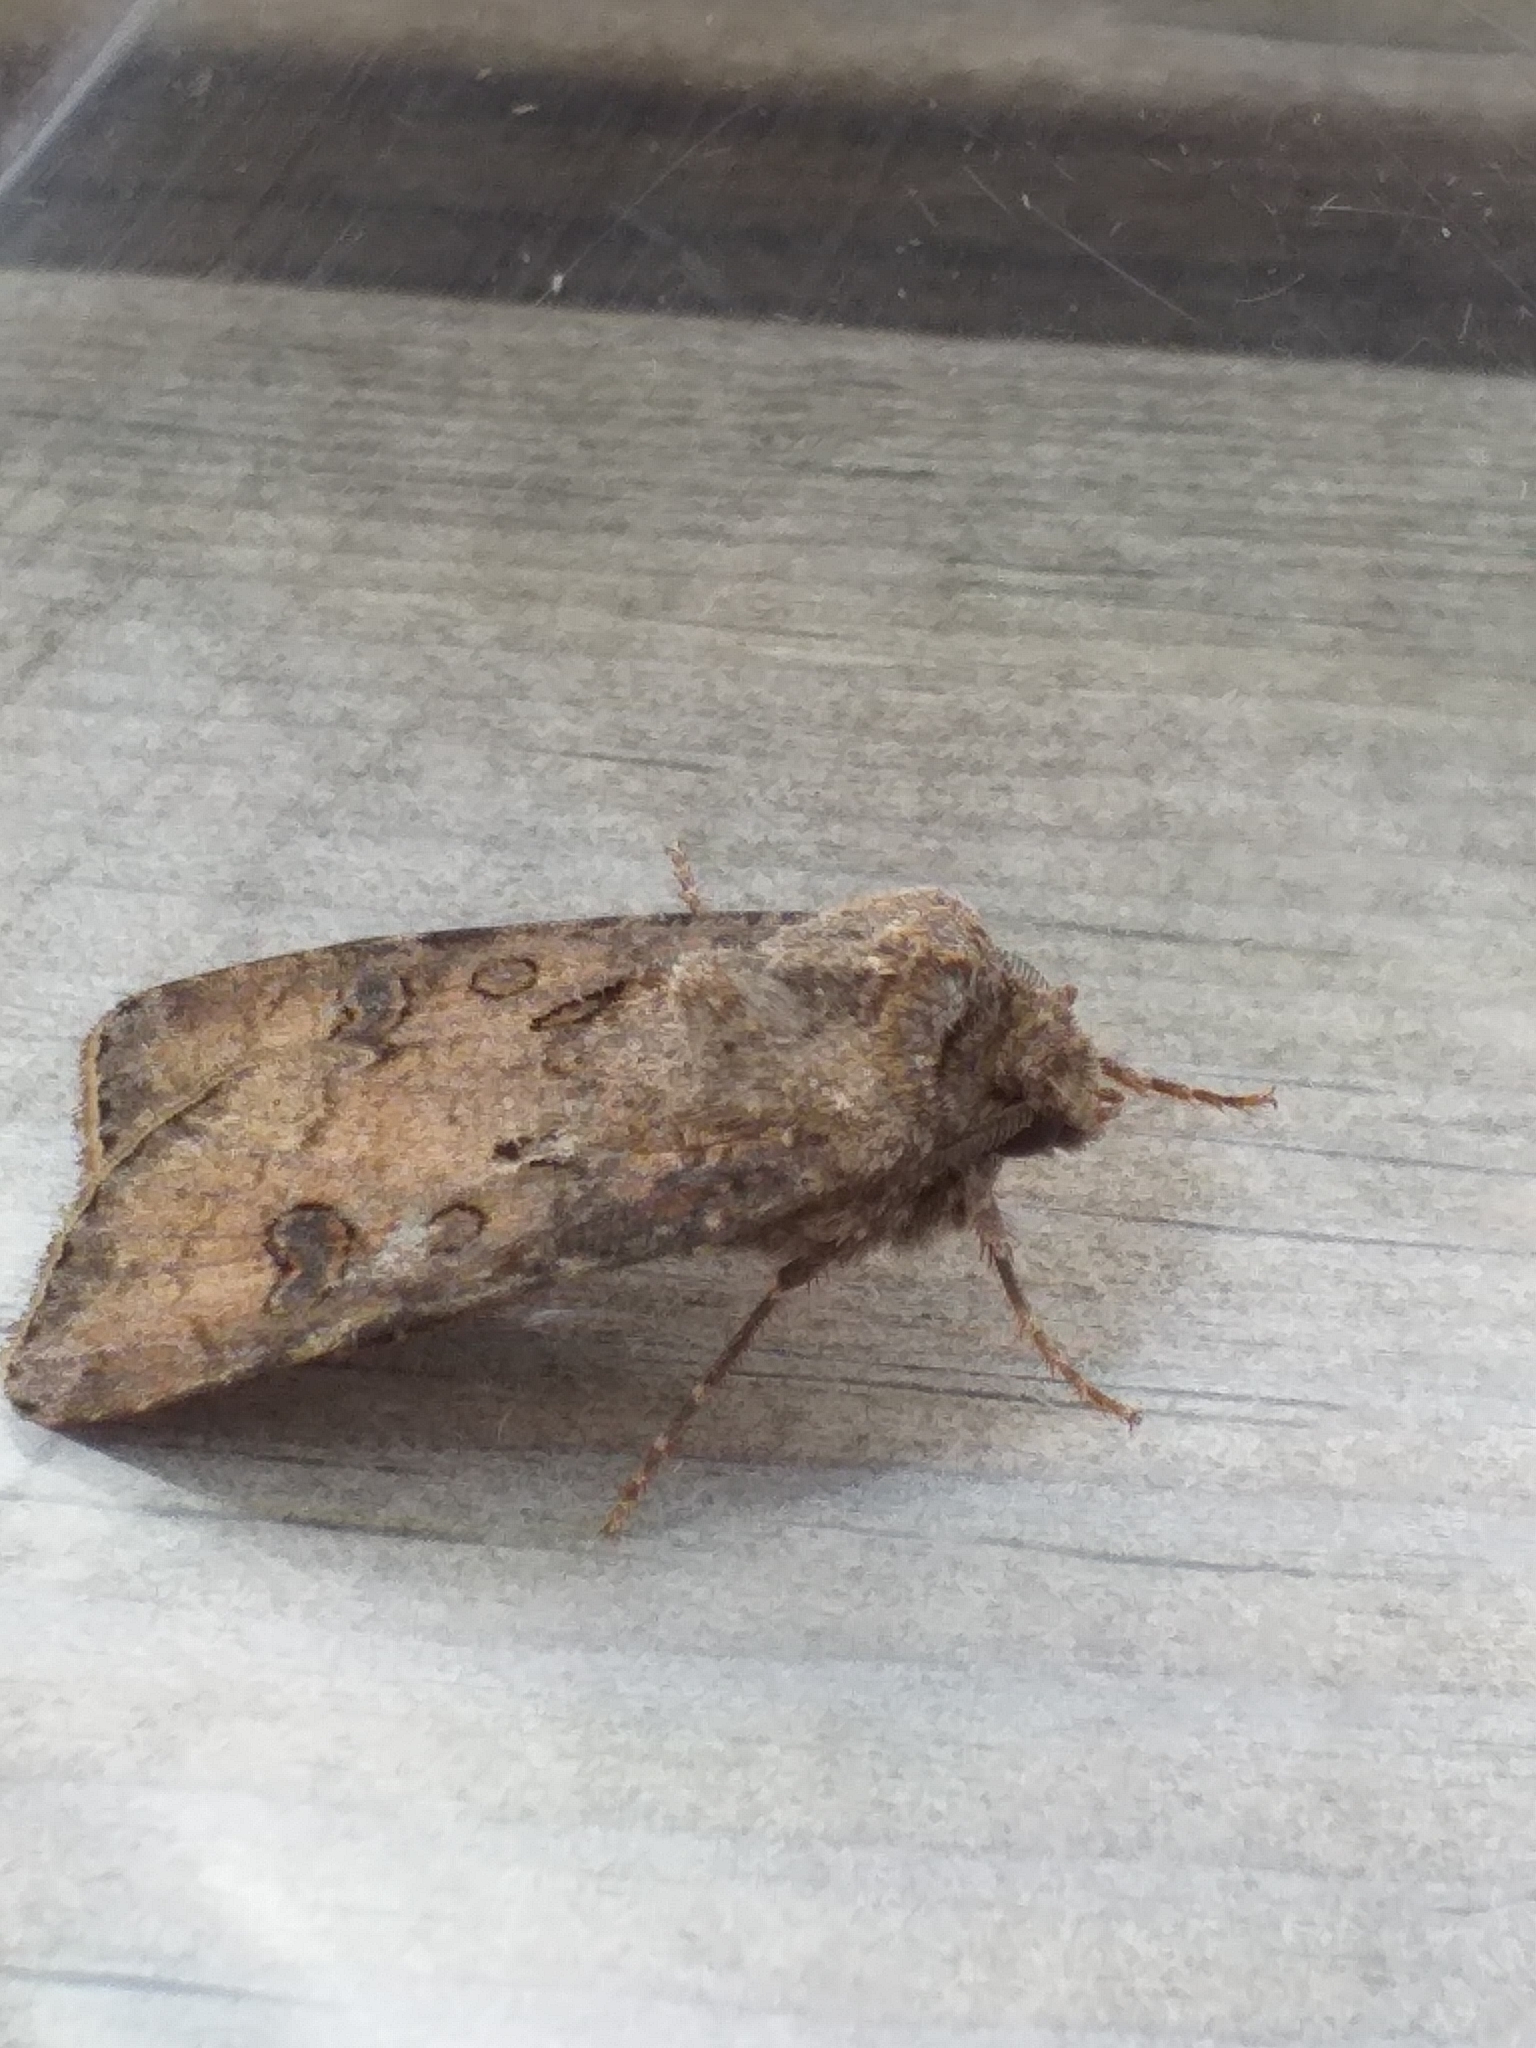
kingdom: Animalia
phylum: Arthropoda
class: Insecta
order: Lepidoptera
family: Noctuidae
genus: Agrotis
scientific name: Agrotis segetum
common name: Turnip moth
